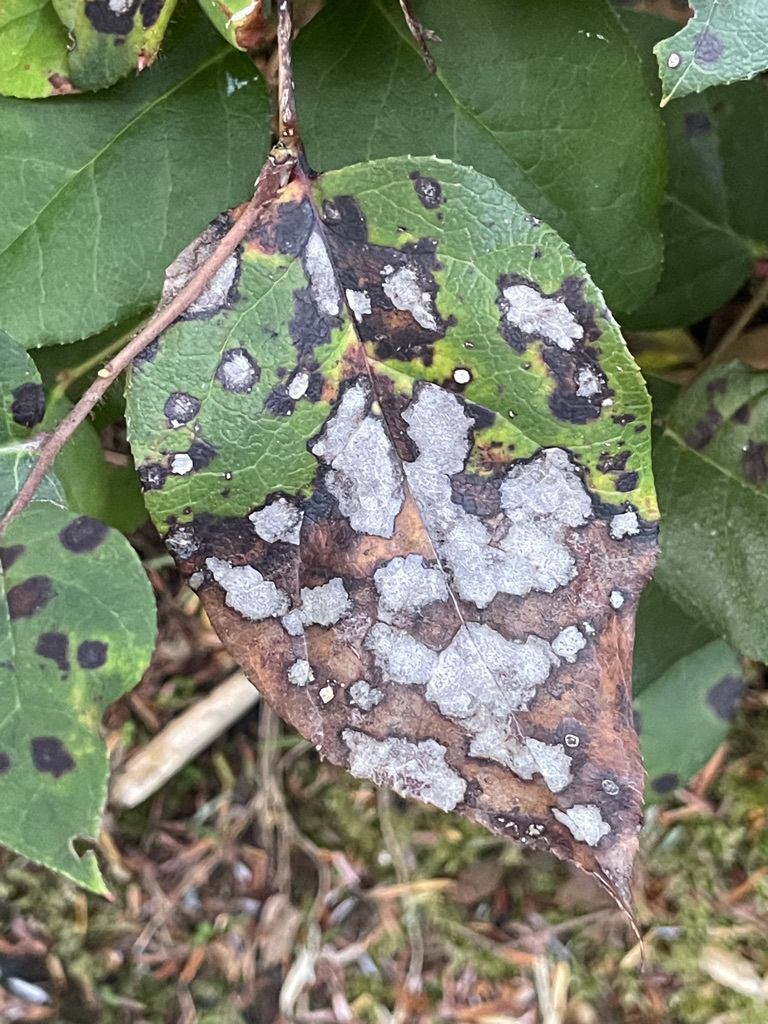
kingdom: Plantae
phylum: Tracheophyta
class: Magnoliopsida
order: Ericales
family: Ericaceae
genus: Gaultheria
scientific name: Gaultheria shallon
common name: Shallon
